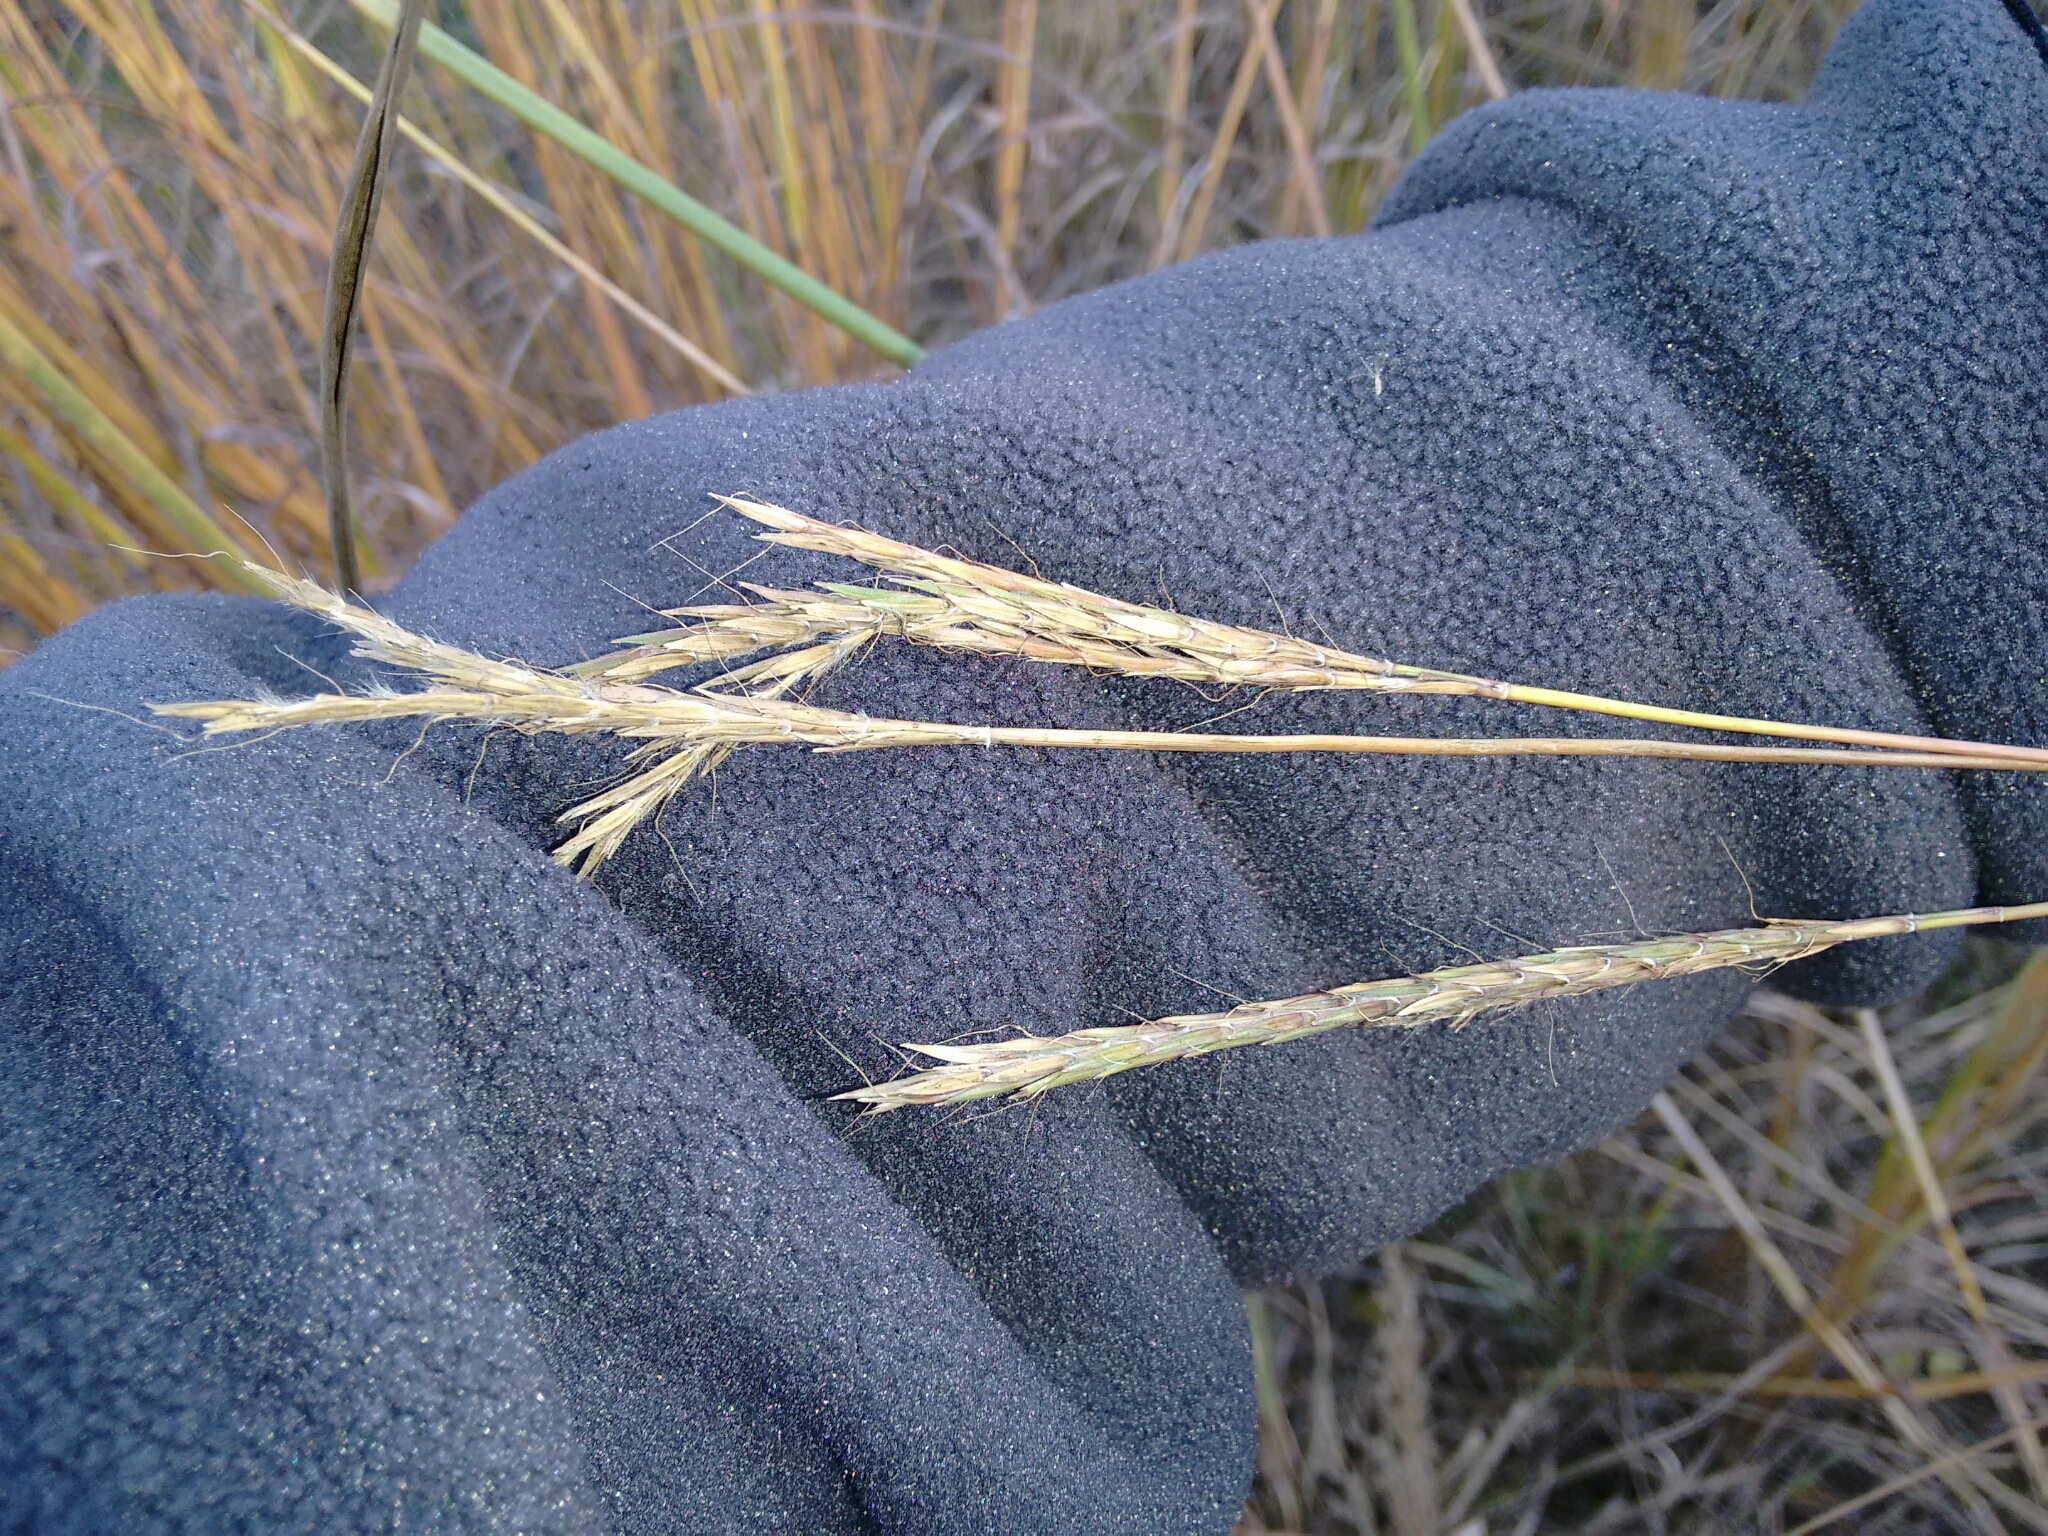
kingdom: Plantae
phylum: Tracheophyta
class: Liliopsida
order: Poales
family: Poaceae
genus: Andropogon
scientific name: Andropogon gerardi
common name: Big bluestem
